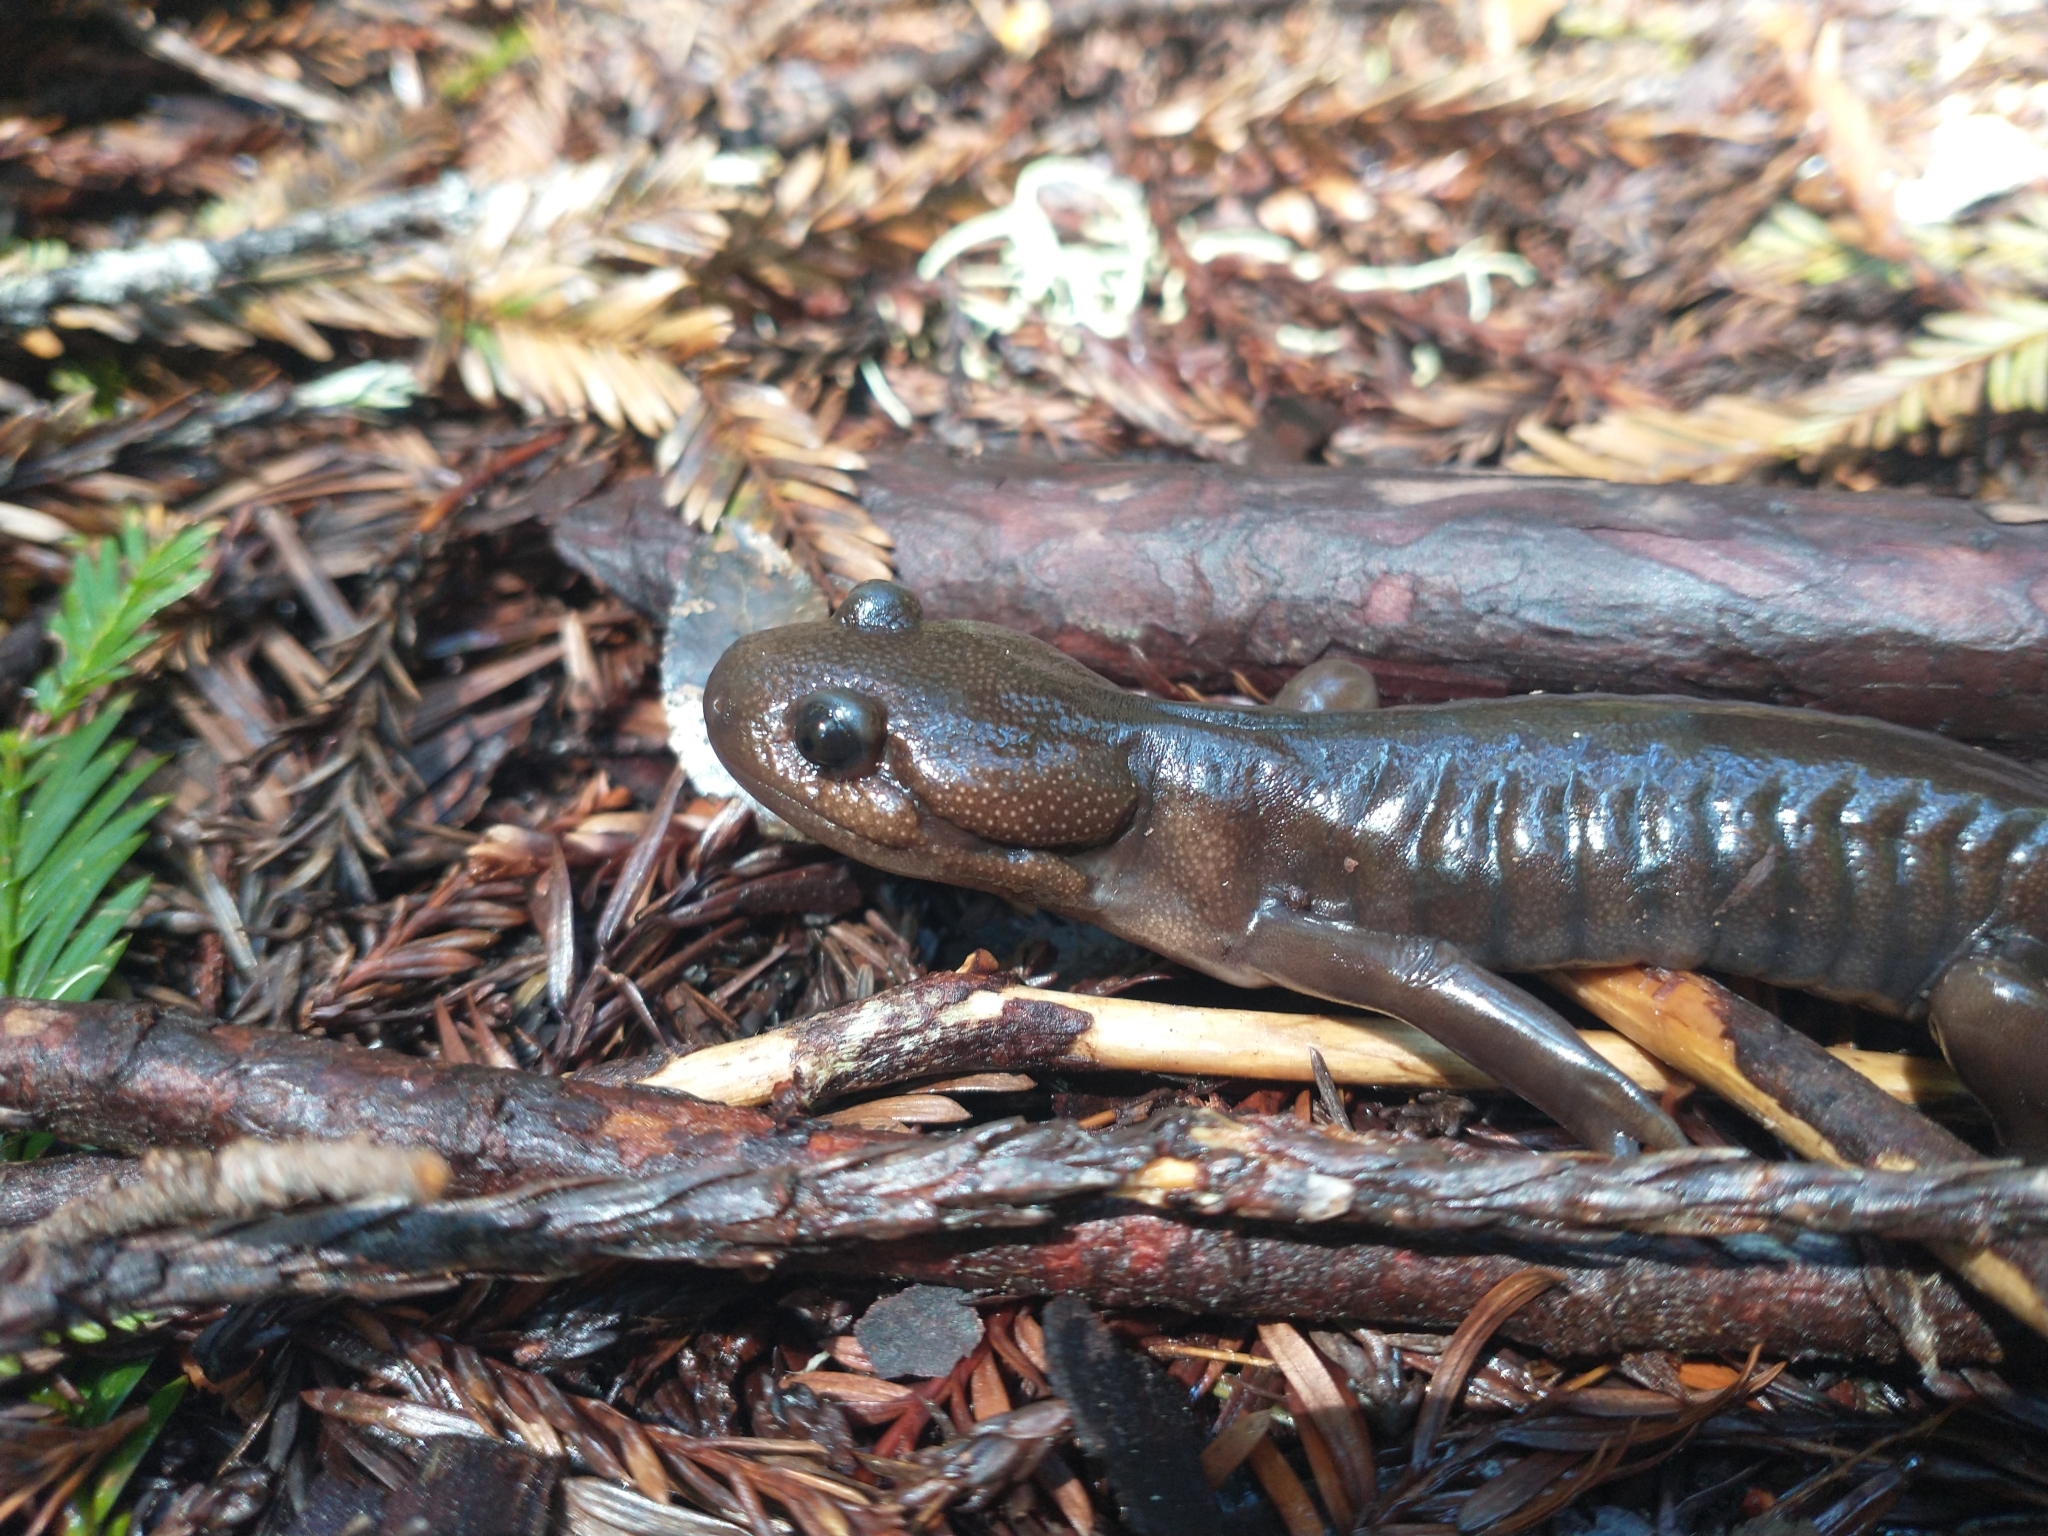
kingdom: Animalia
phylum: Chordata
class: Amphibia
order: Caudata
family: Ambystomatidae
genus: Ambystoma
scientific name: Ambystoma gracile
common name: Northwestern salamander
